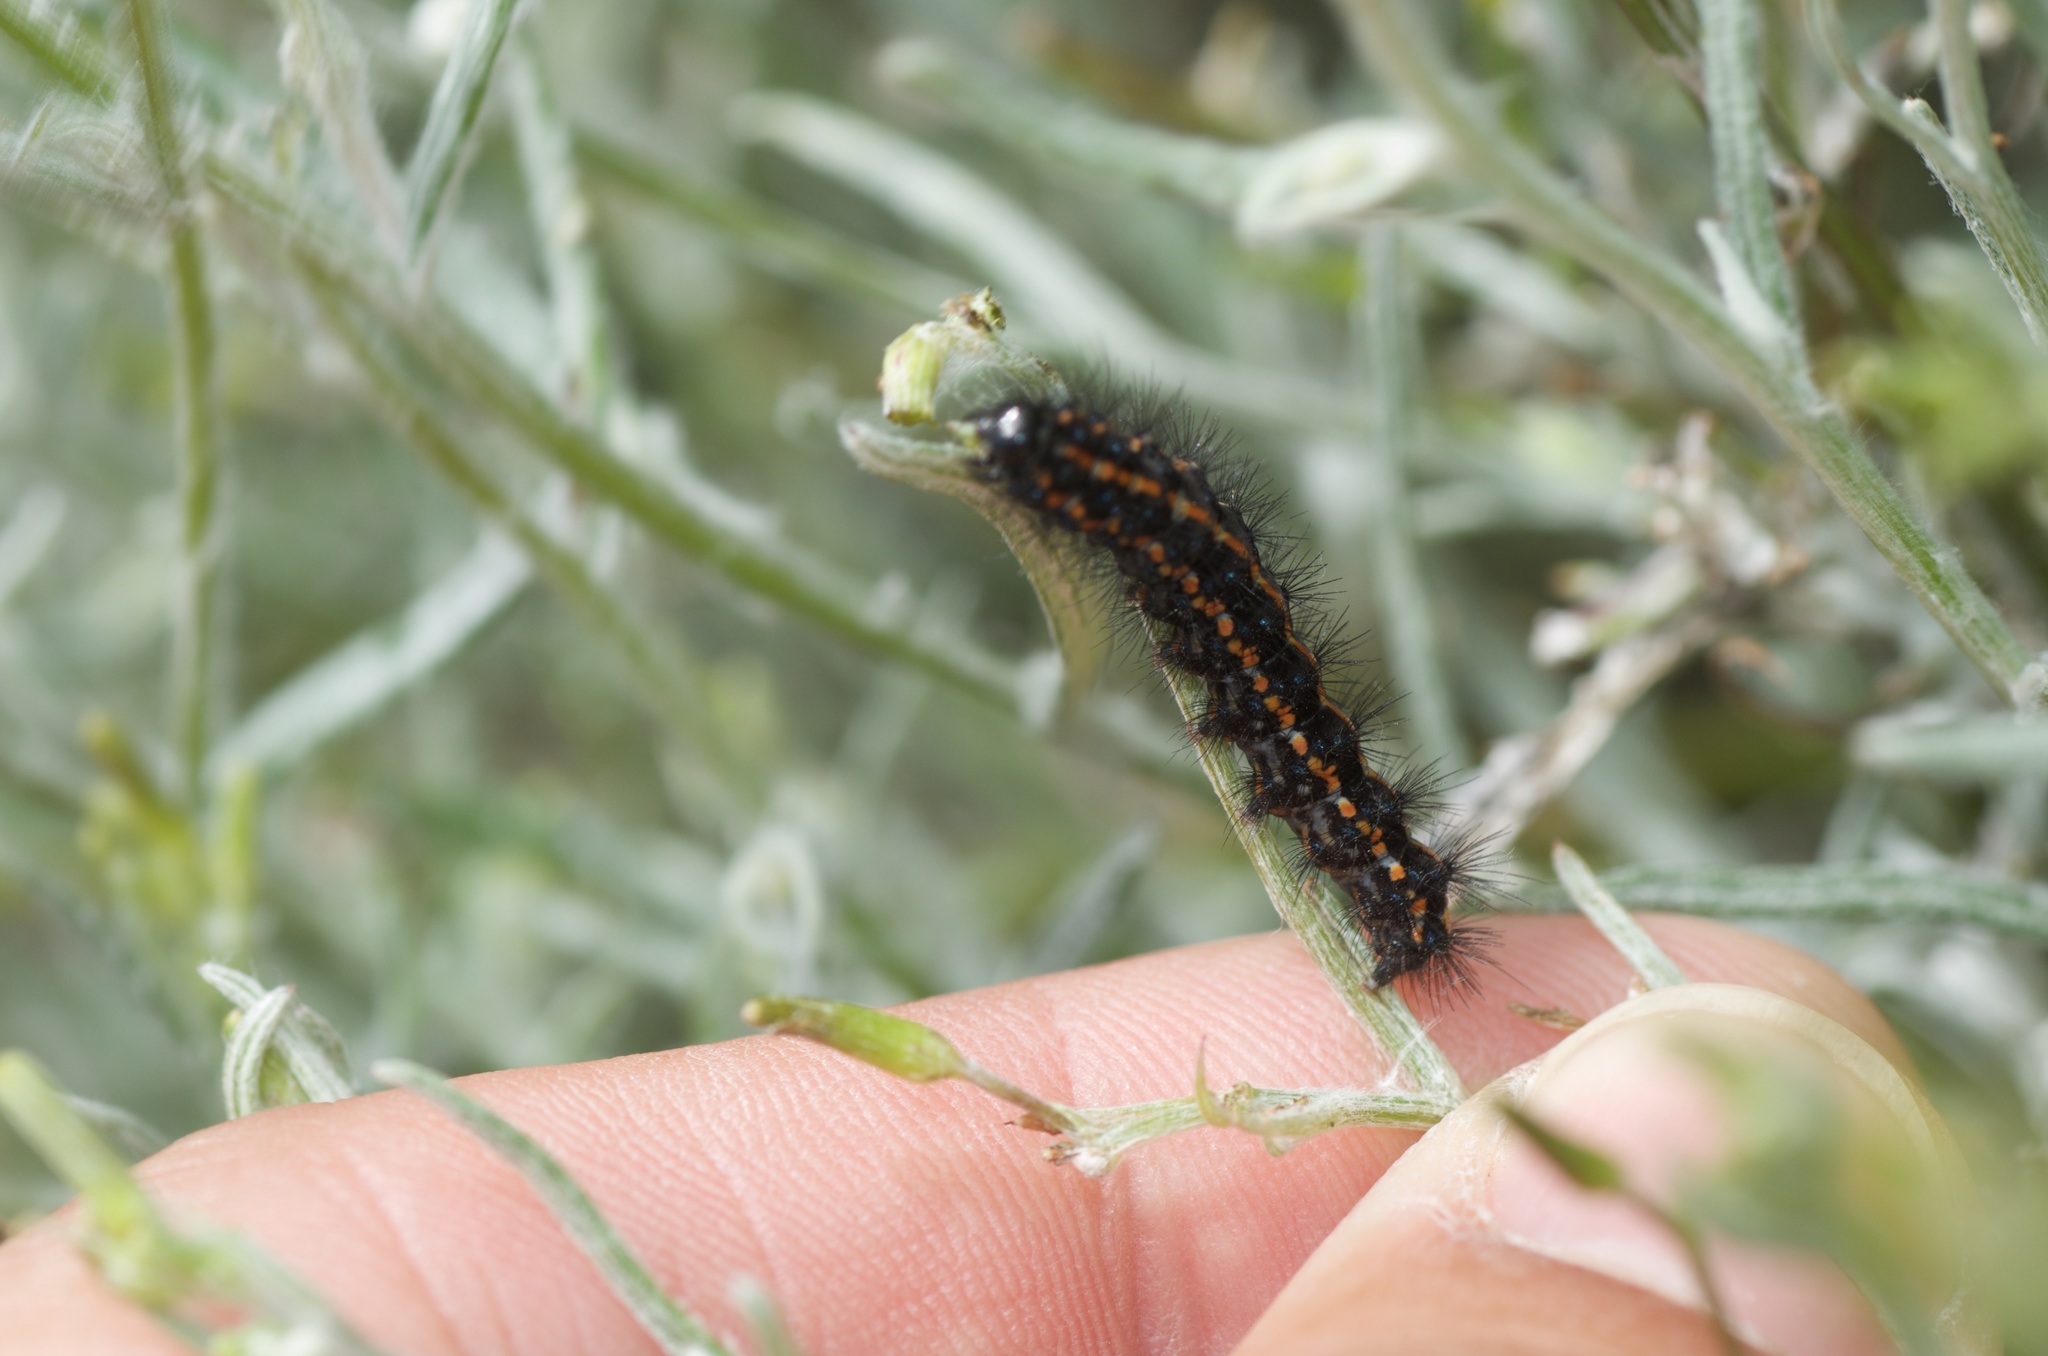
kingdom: Animalia
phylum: Arthropoda
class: Insecta
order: Lepidoptera
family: Erebidae
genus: Nyctemera
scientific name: Nyctemera annulatum
